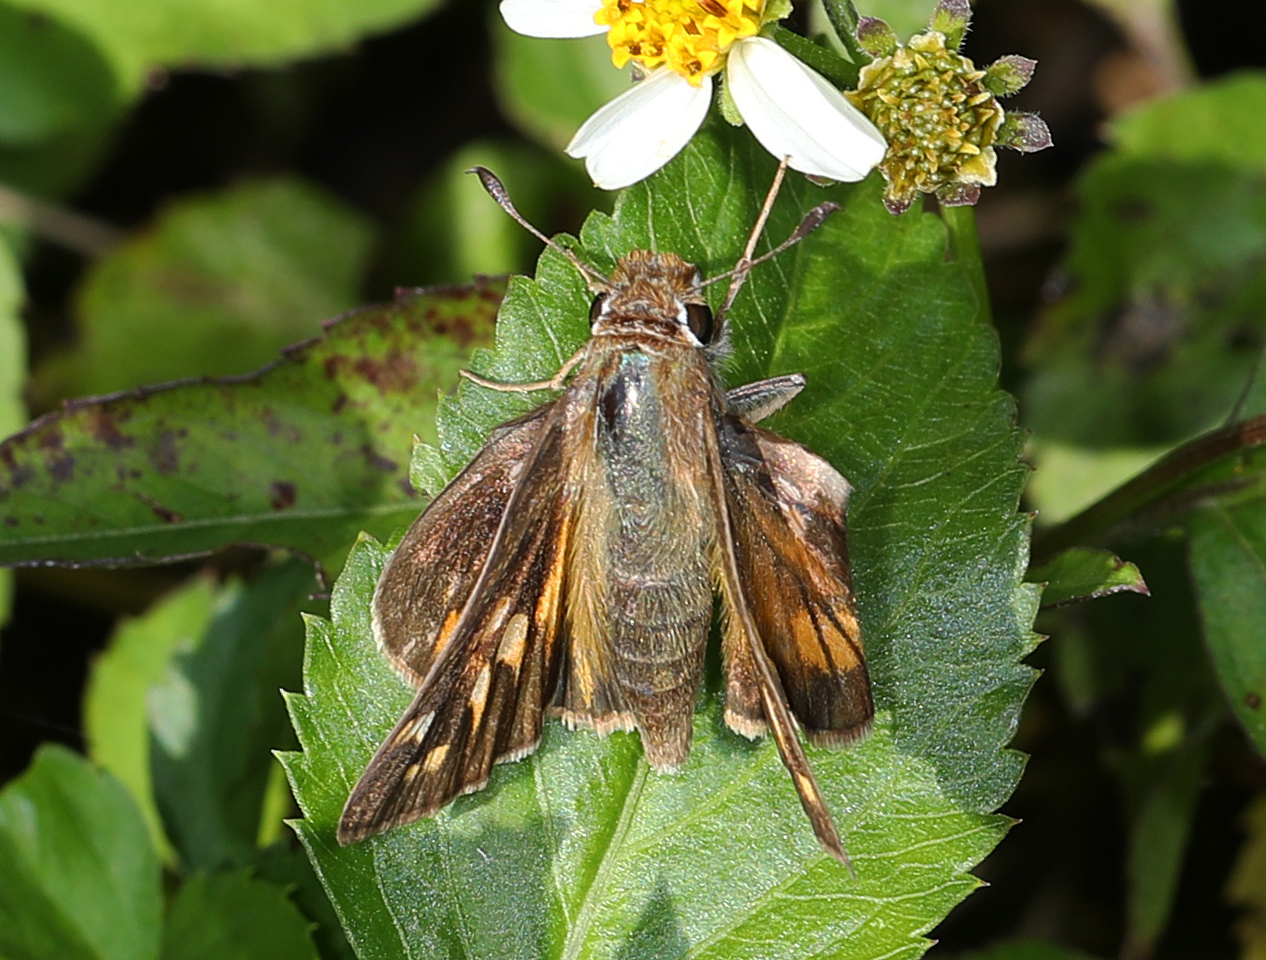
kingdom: Animalia
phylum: Arthropoda
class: Insecta
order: Lepidoptera
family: Hesperiidae
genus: Atalopedes
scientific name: Atalopedes
